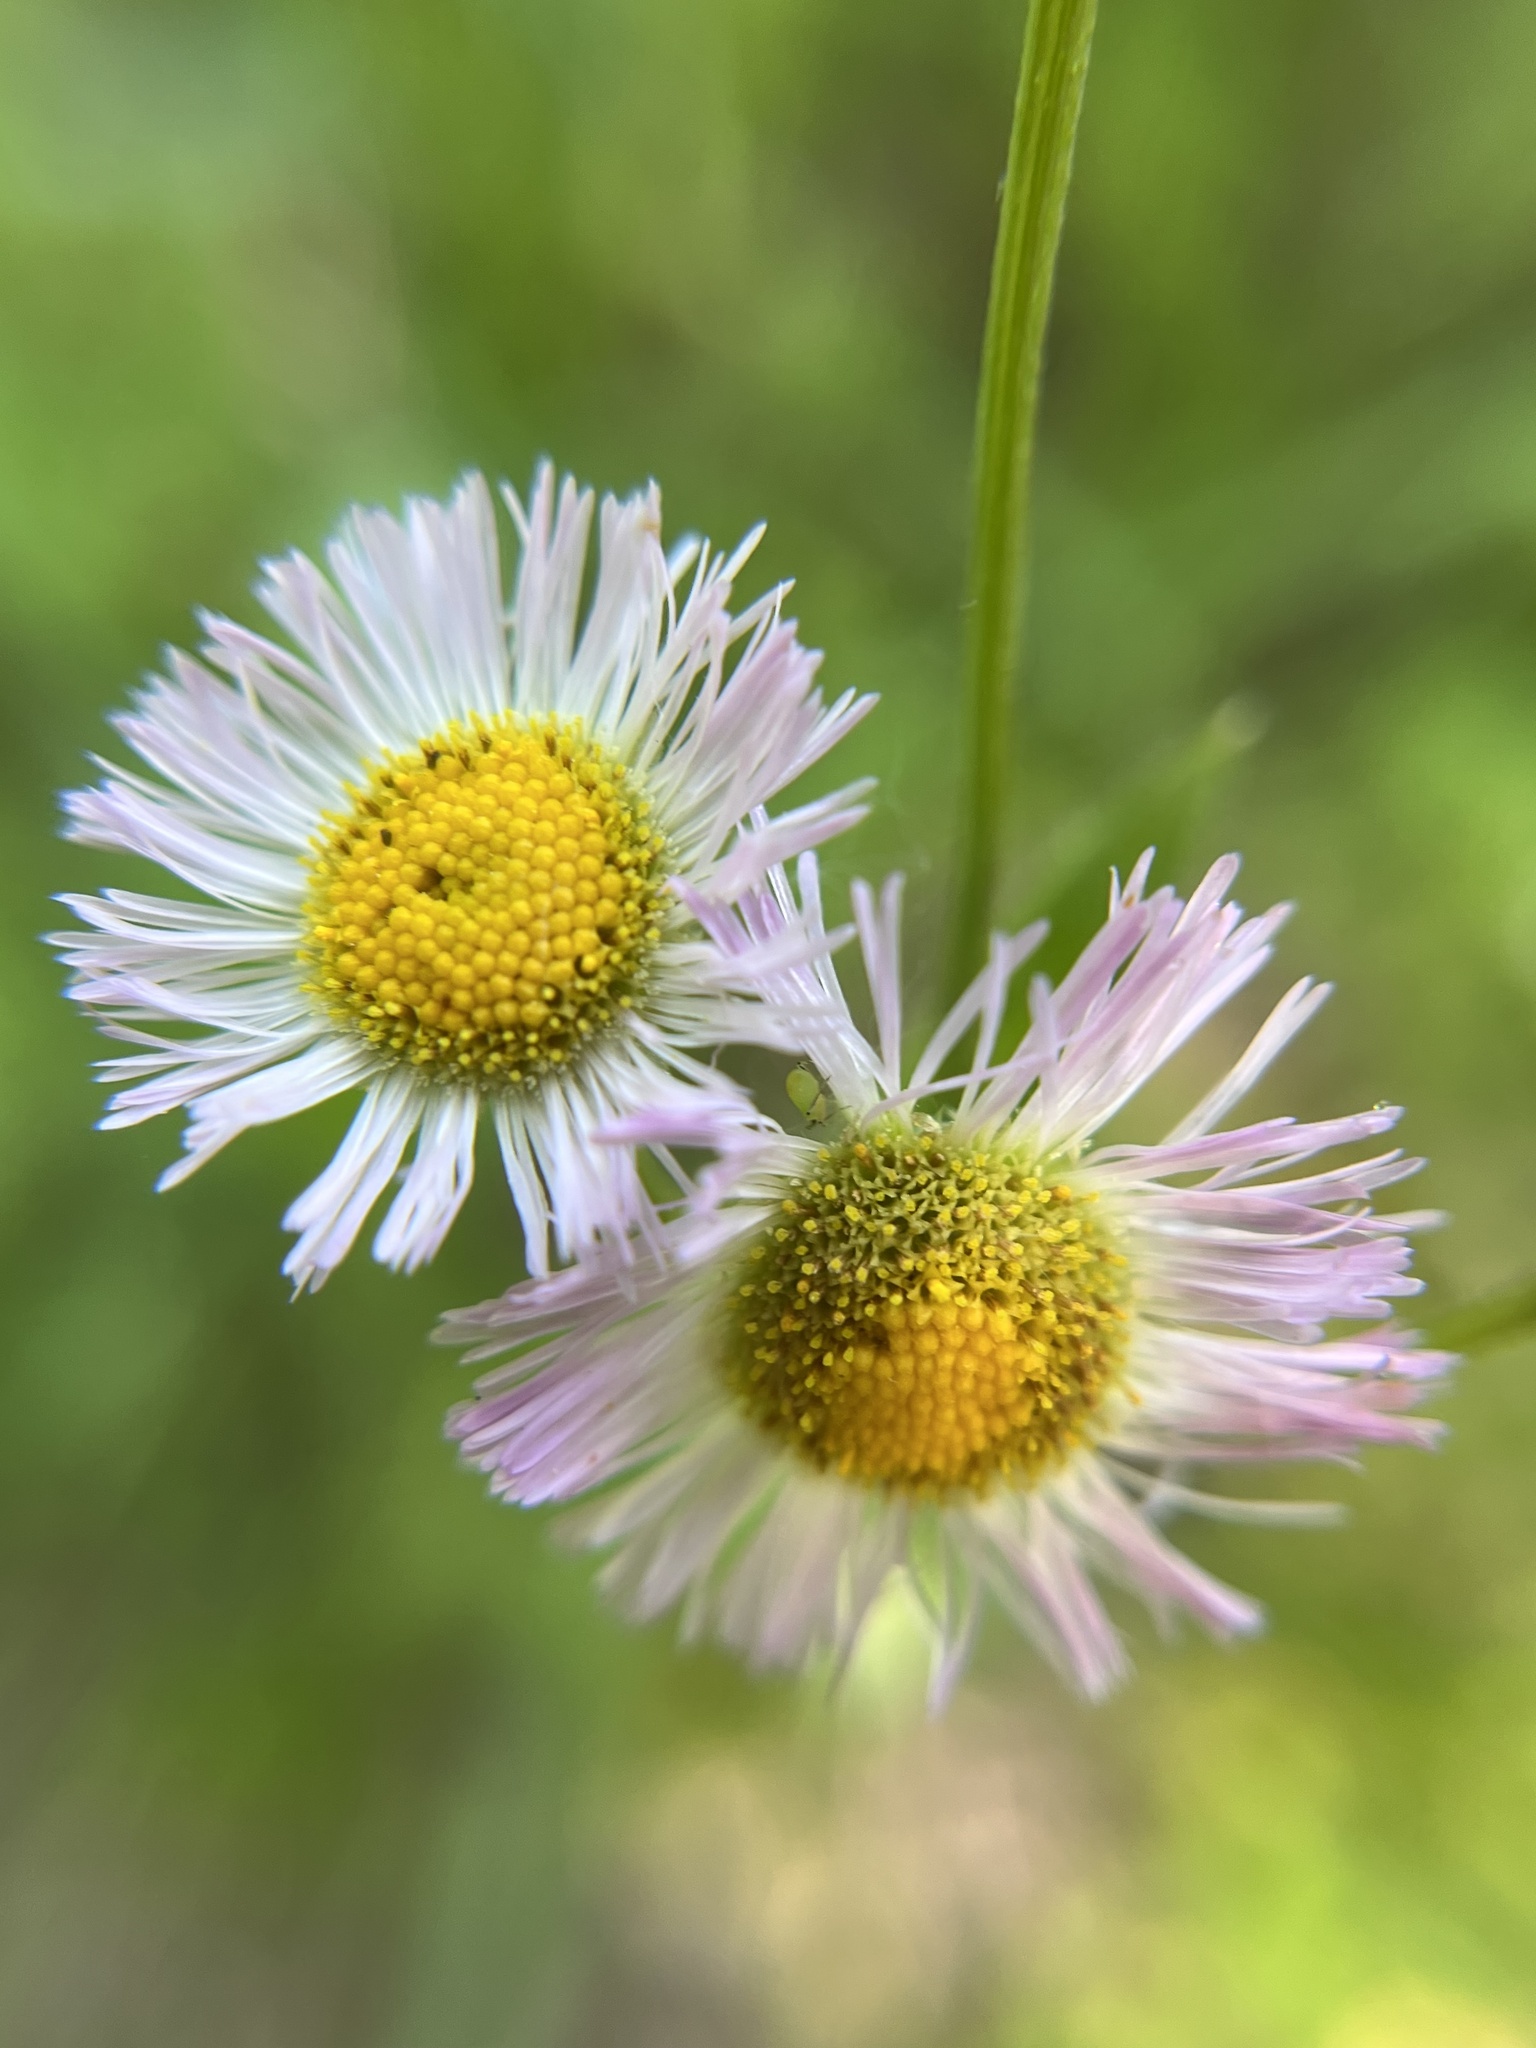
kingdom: Plantae
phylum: Tracheophyta
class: Magnoliopsida
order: Asterales
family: Asteraceae
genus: Erigeron
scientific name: Erigeron philadelphicus
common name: Robin's-plantain
